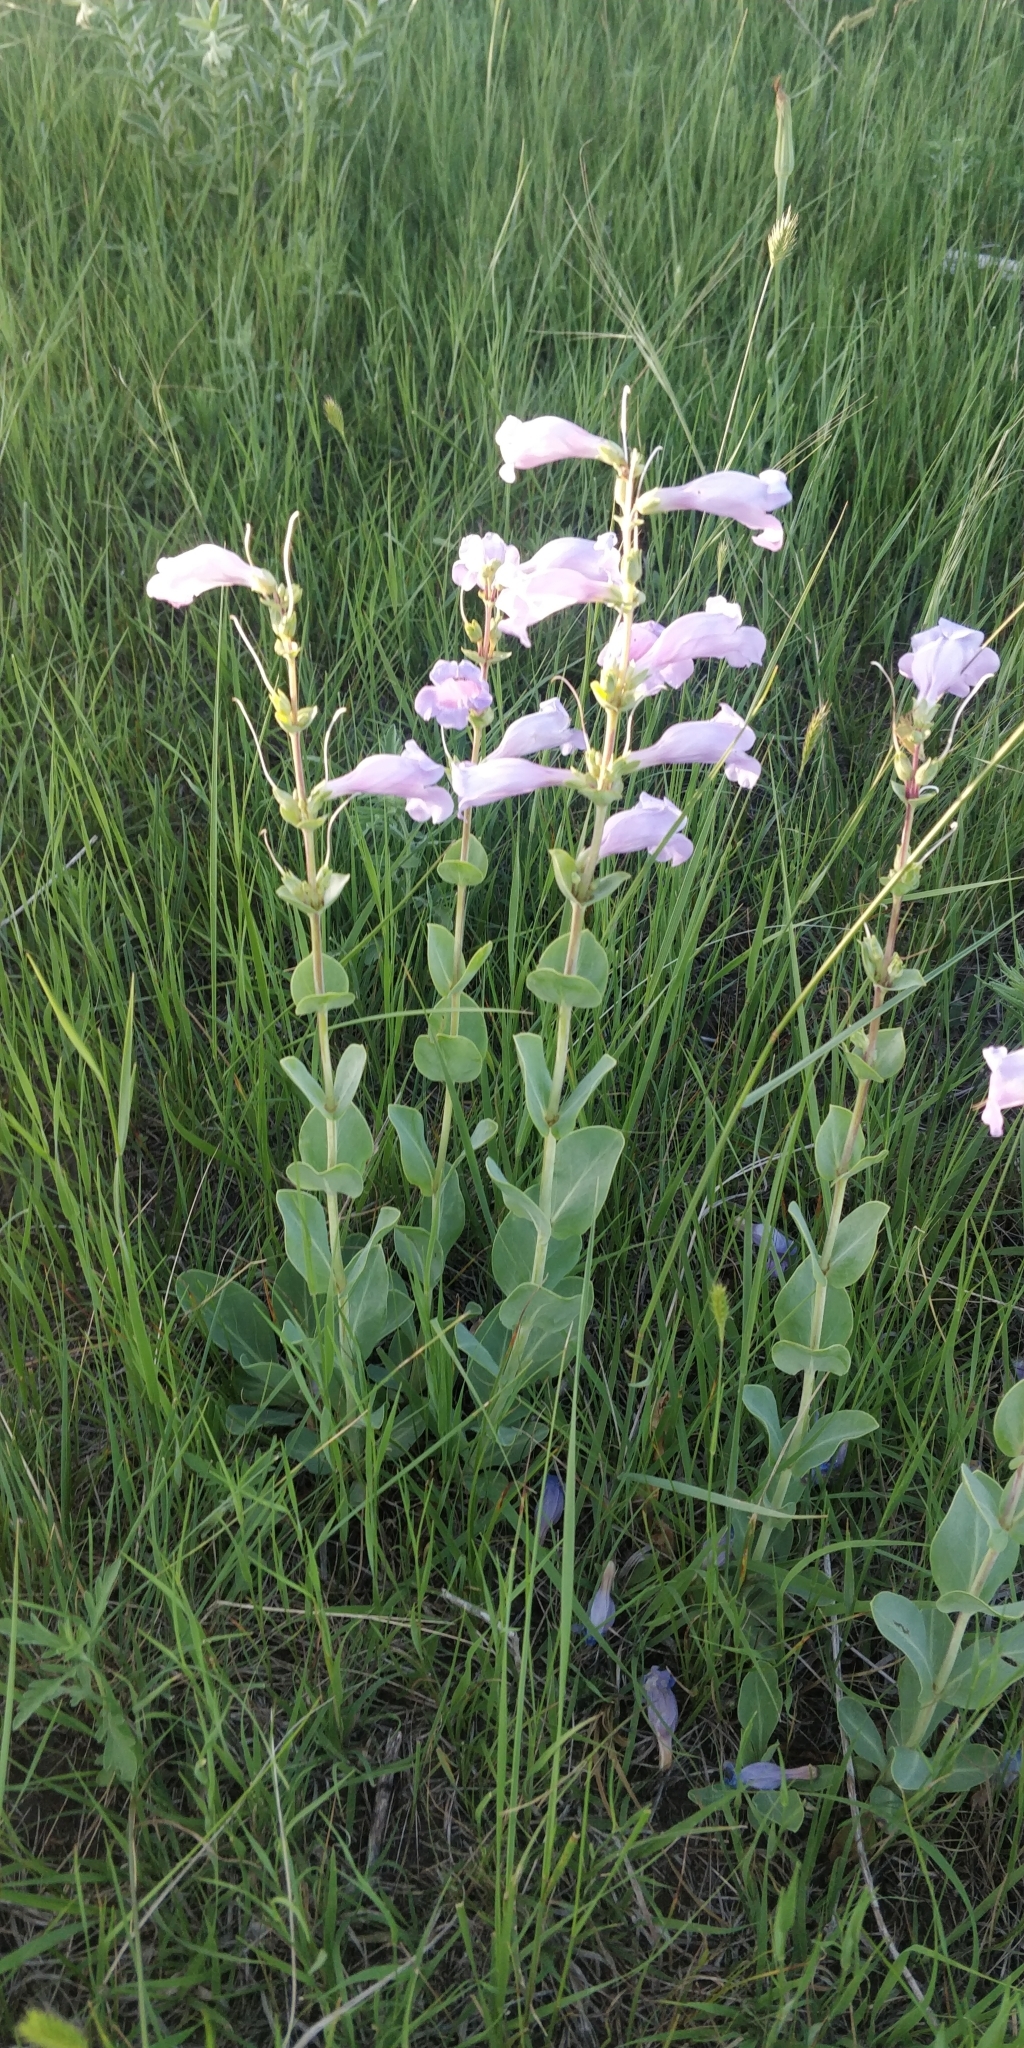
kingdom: Plantae
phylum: Tracheophyta
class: Magnoliopsida
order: Lamiales
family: Plantaginaceae
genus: Penstemon
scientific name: Penstemon
